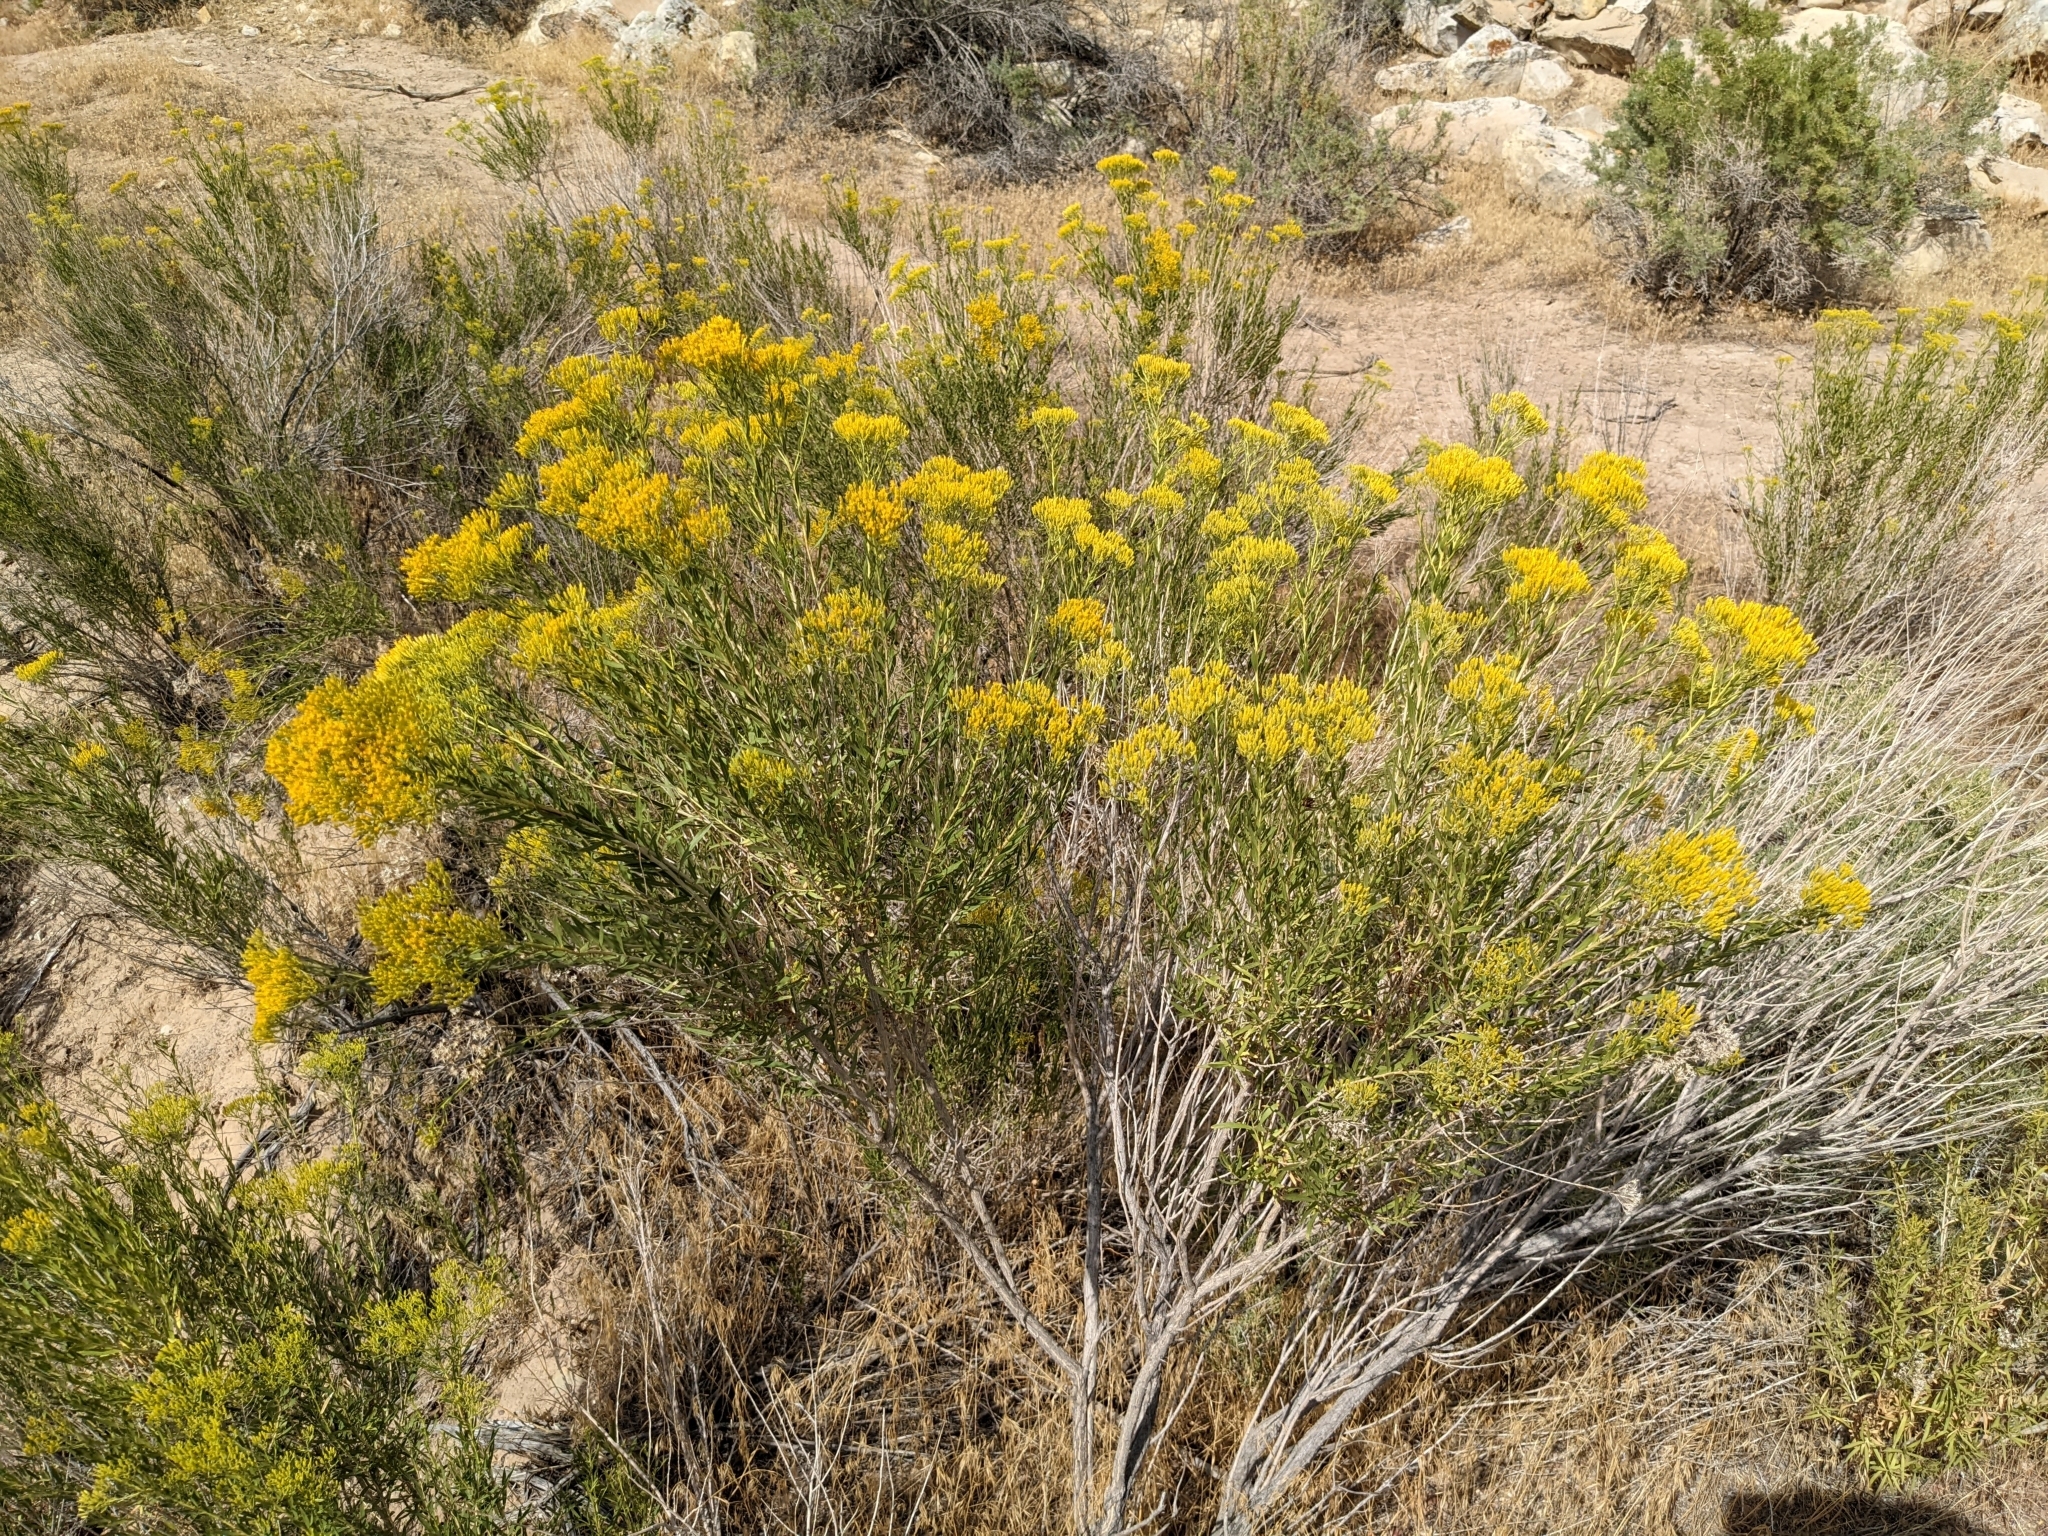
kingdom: Plantae
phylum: Tracheophyta
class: Magnoliopsida
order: Asterales
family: Asteraceae
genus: Chrysothamnus
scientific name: Chrysothamnus viscidiflorus
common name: Yellow rabbitbrush
